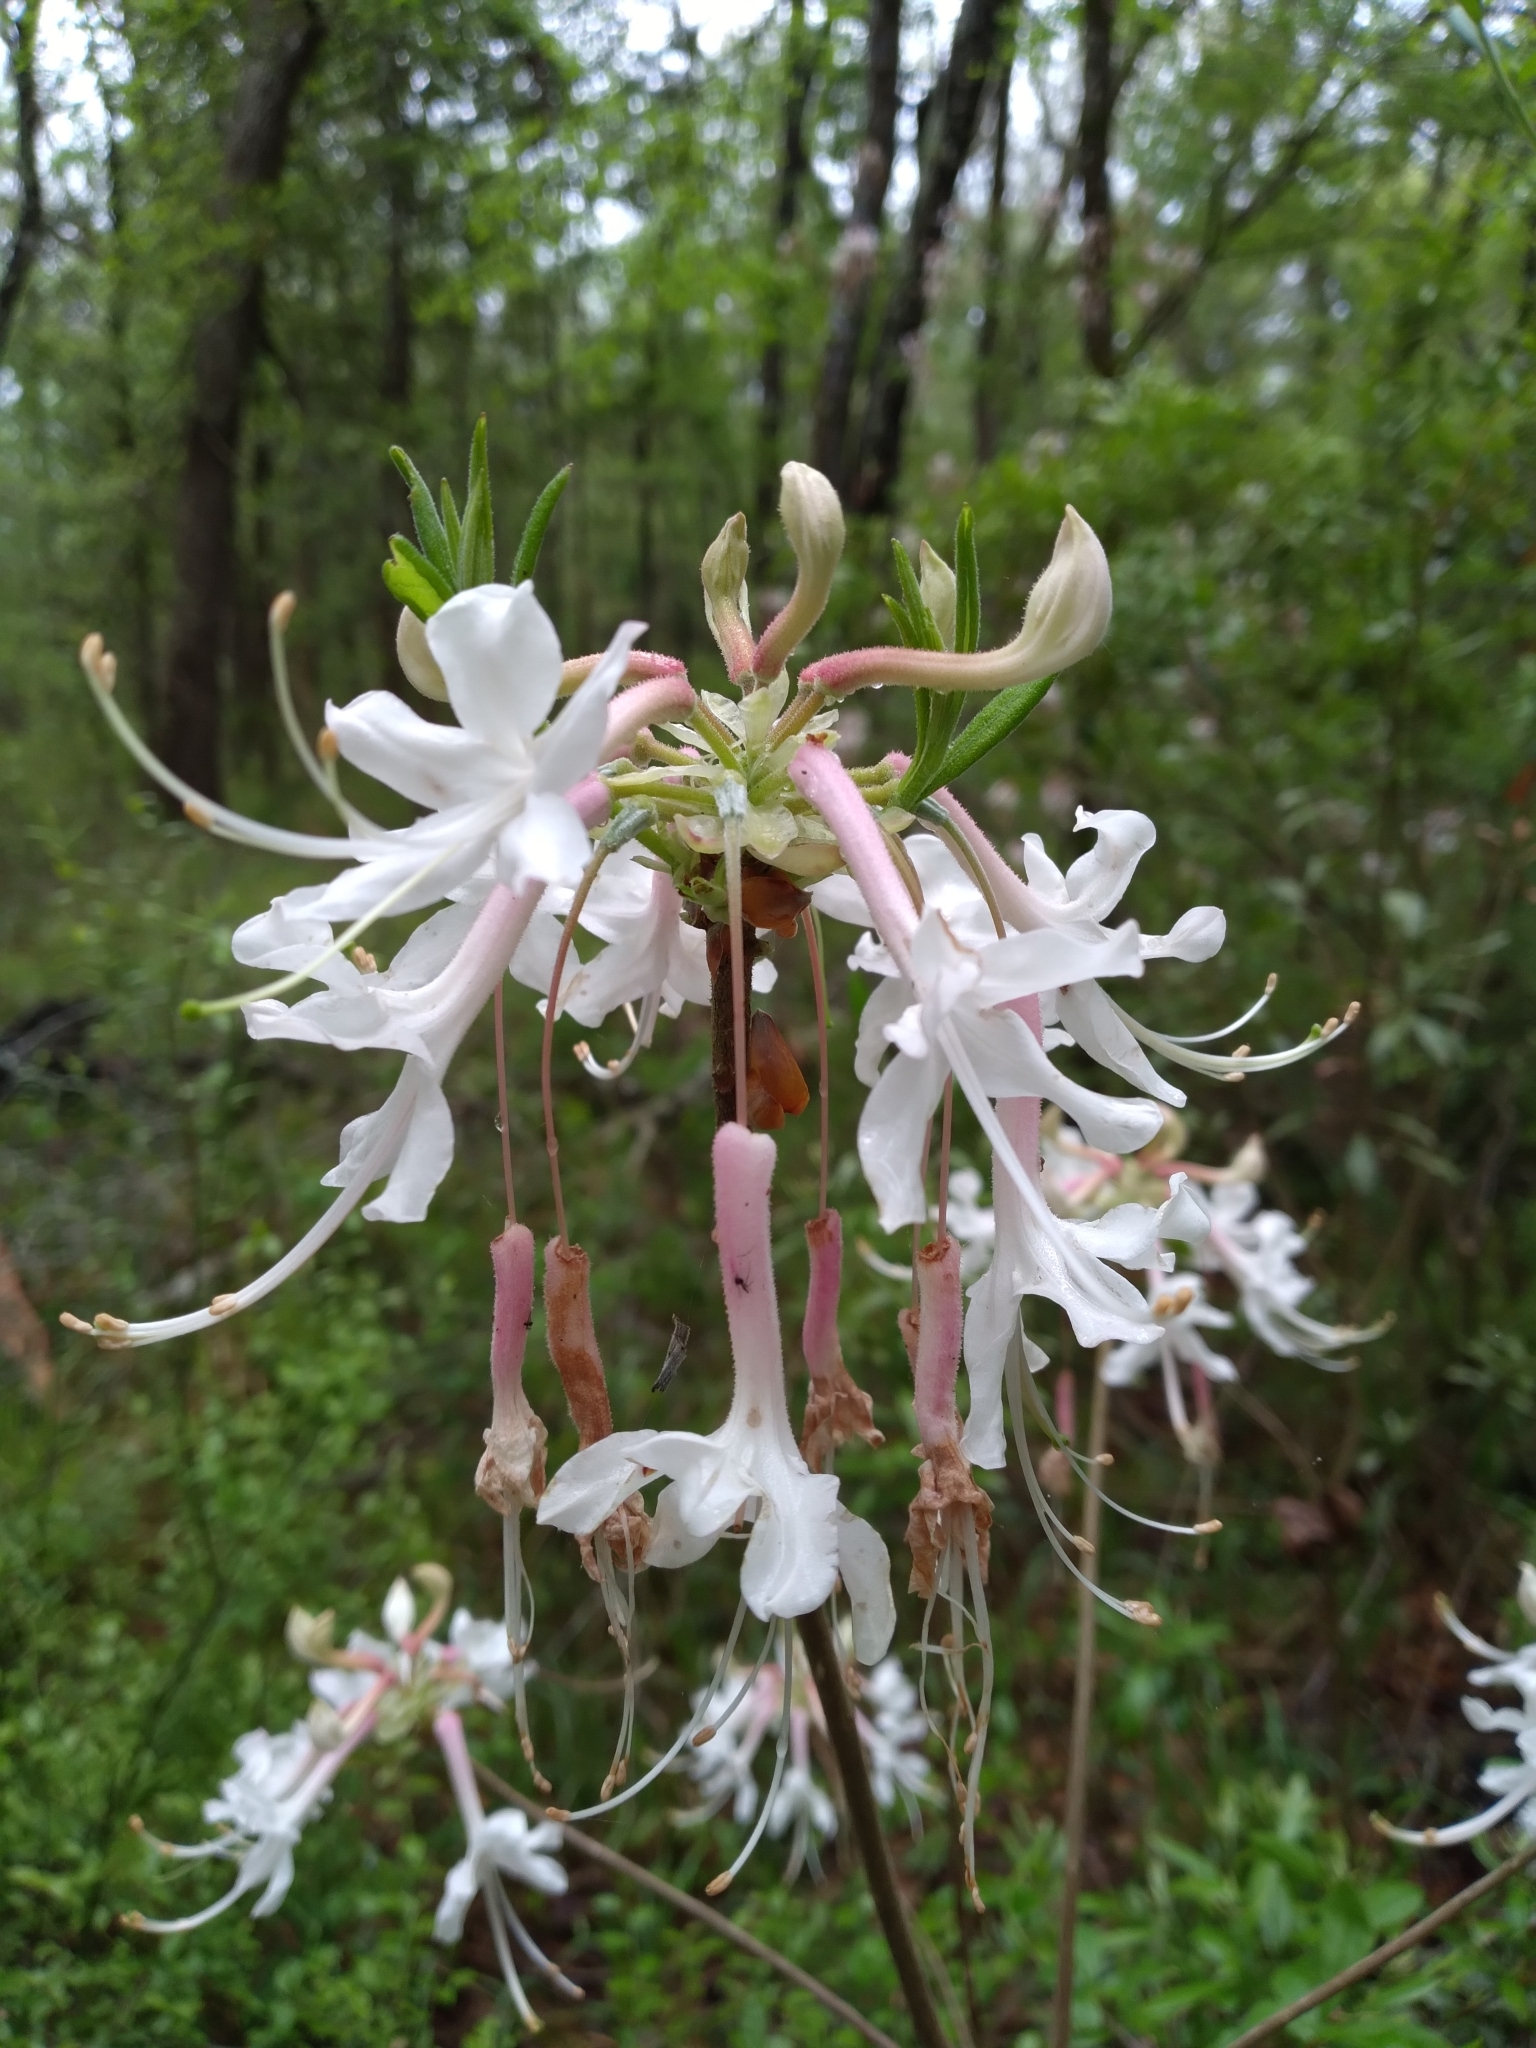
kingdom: Plantae
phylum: Tracheophyta
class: Magnoliopsida
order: Ericales
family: Ericaceae
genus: Rhododendron
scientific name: Rhododendron canescens
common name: Mountain azalea
